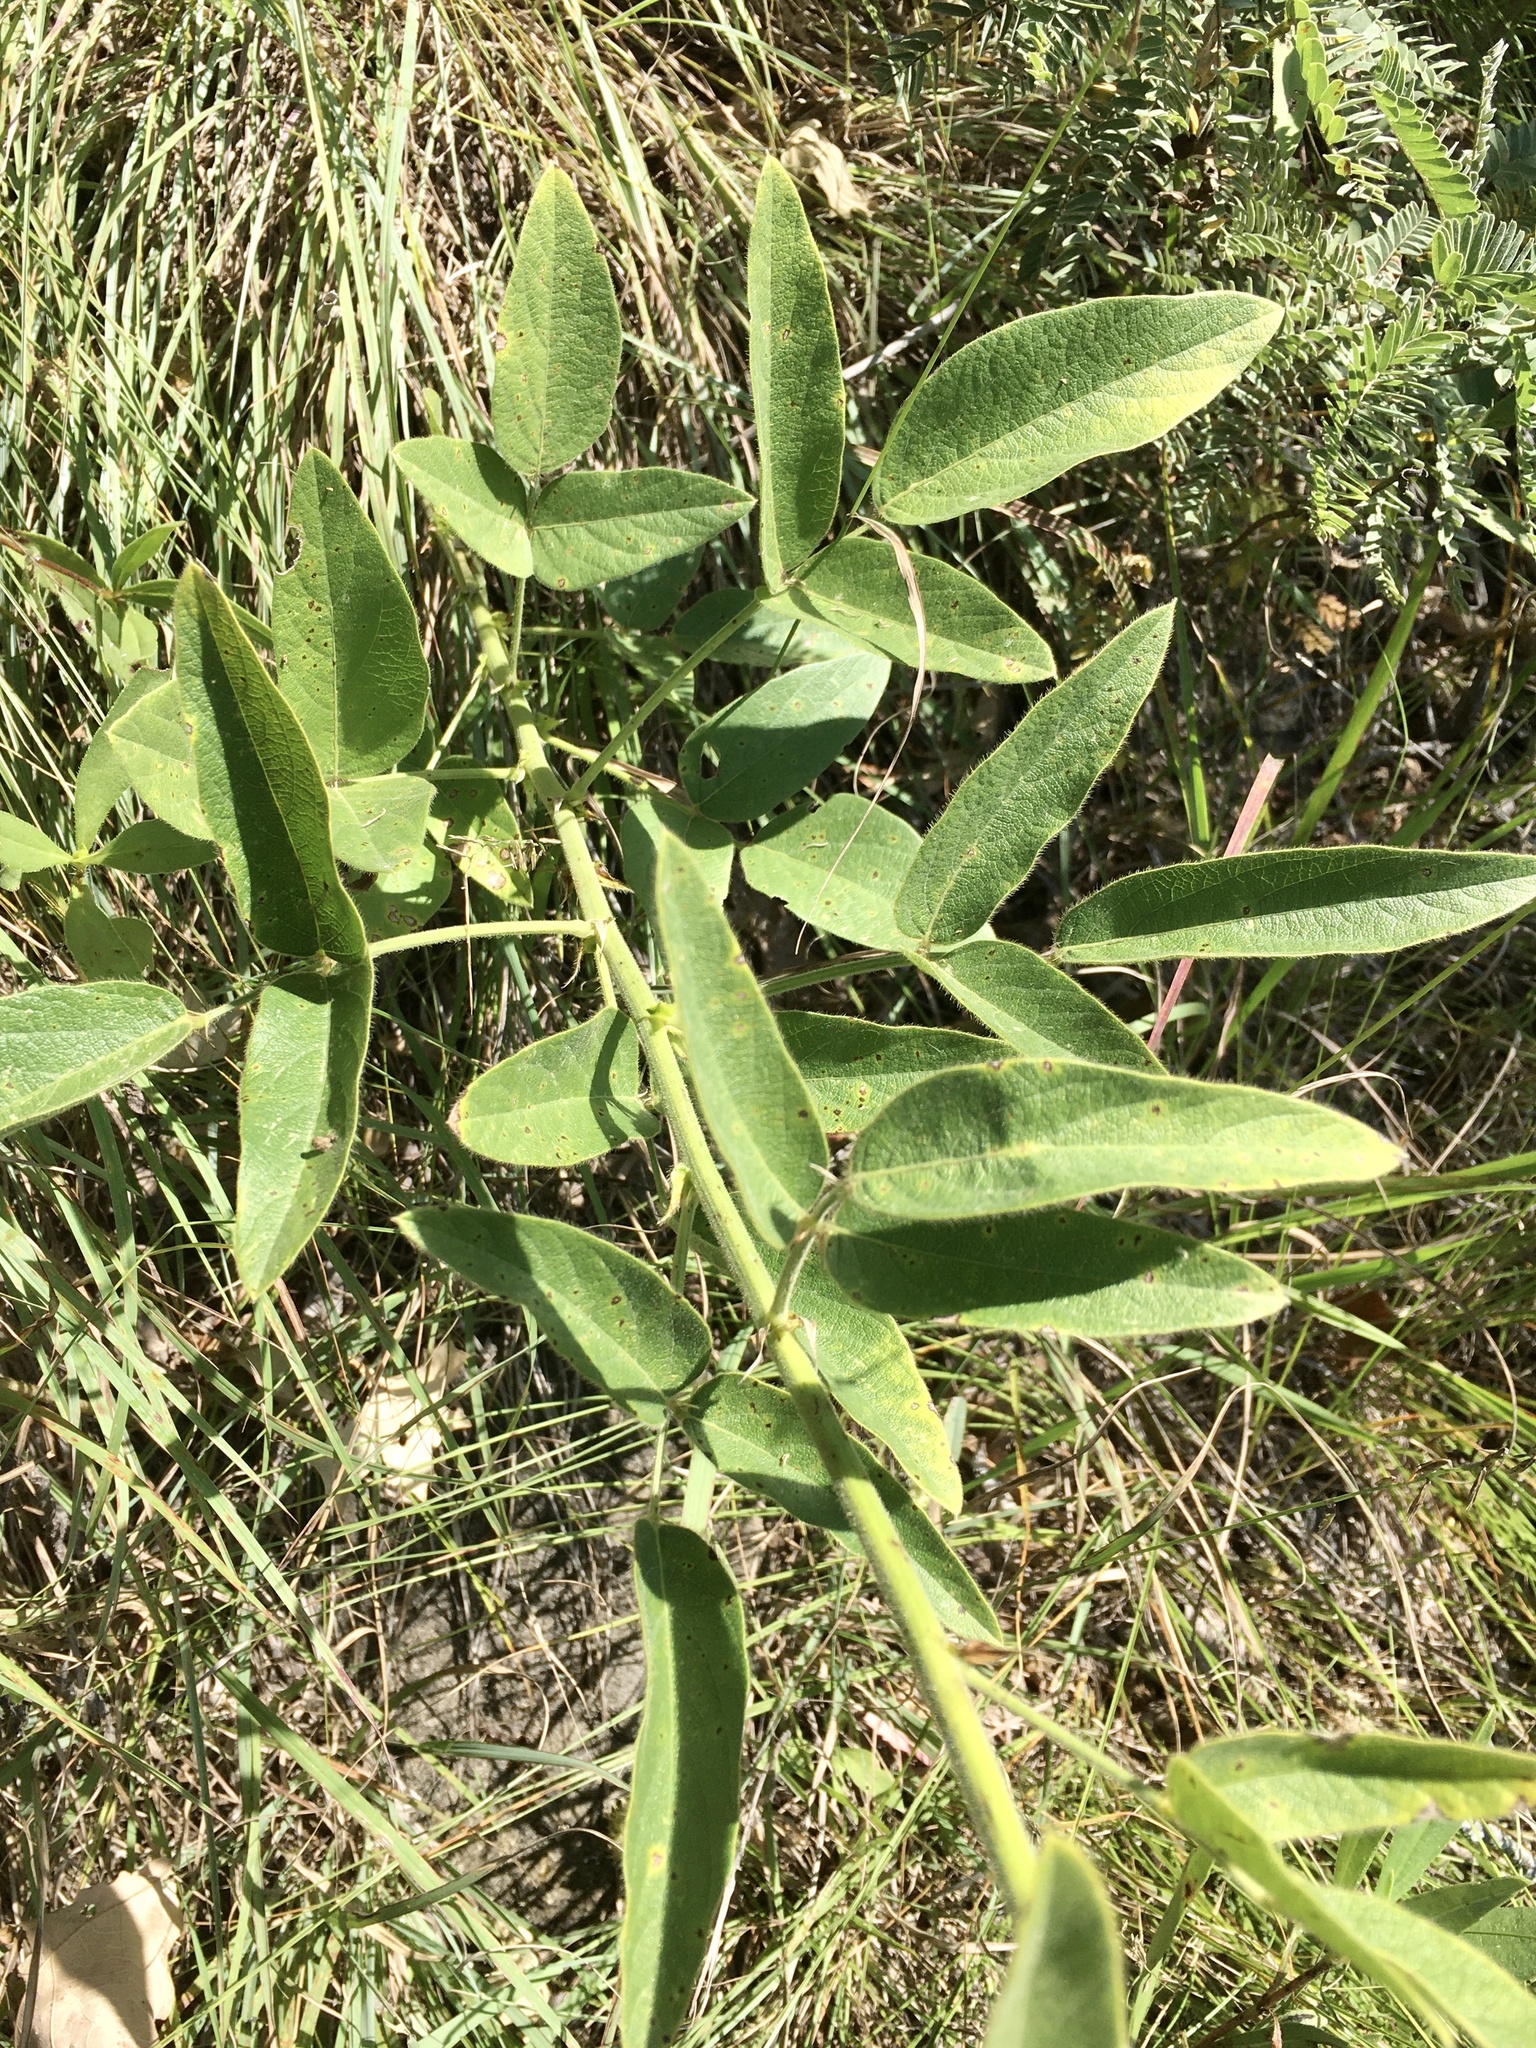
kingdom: Plantae
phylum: Tracheophyta
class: Magnoliopsida
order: Fabales
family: Fabaceae
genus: Desmodium
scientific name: Desmodium illinoense
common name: Illinois tick-clover
